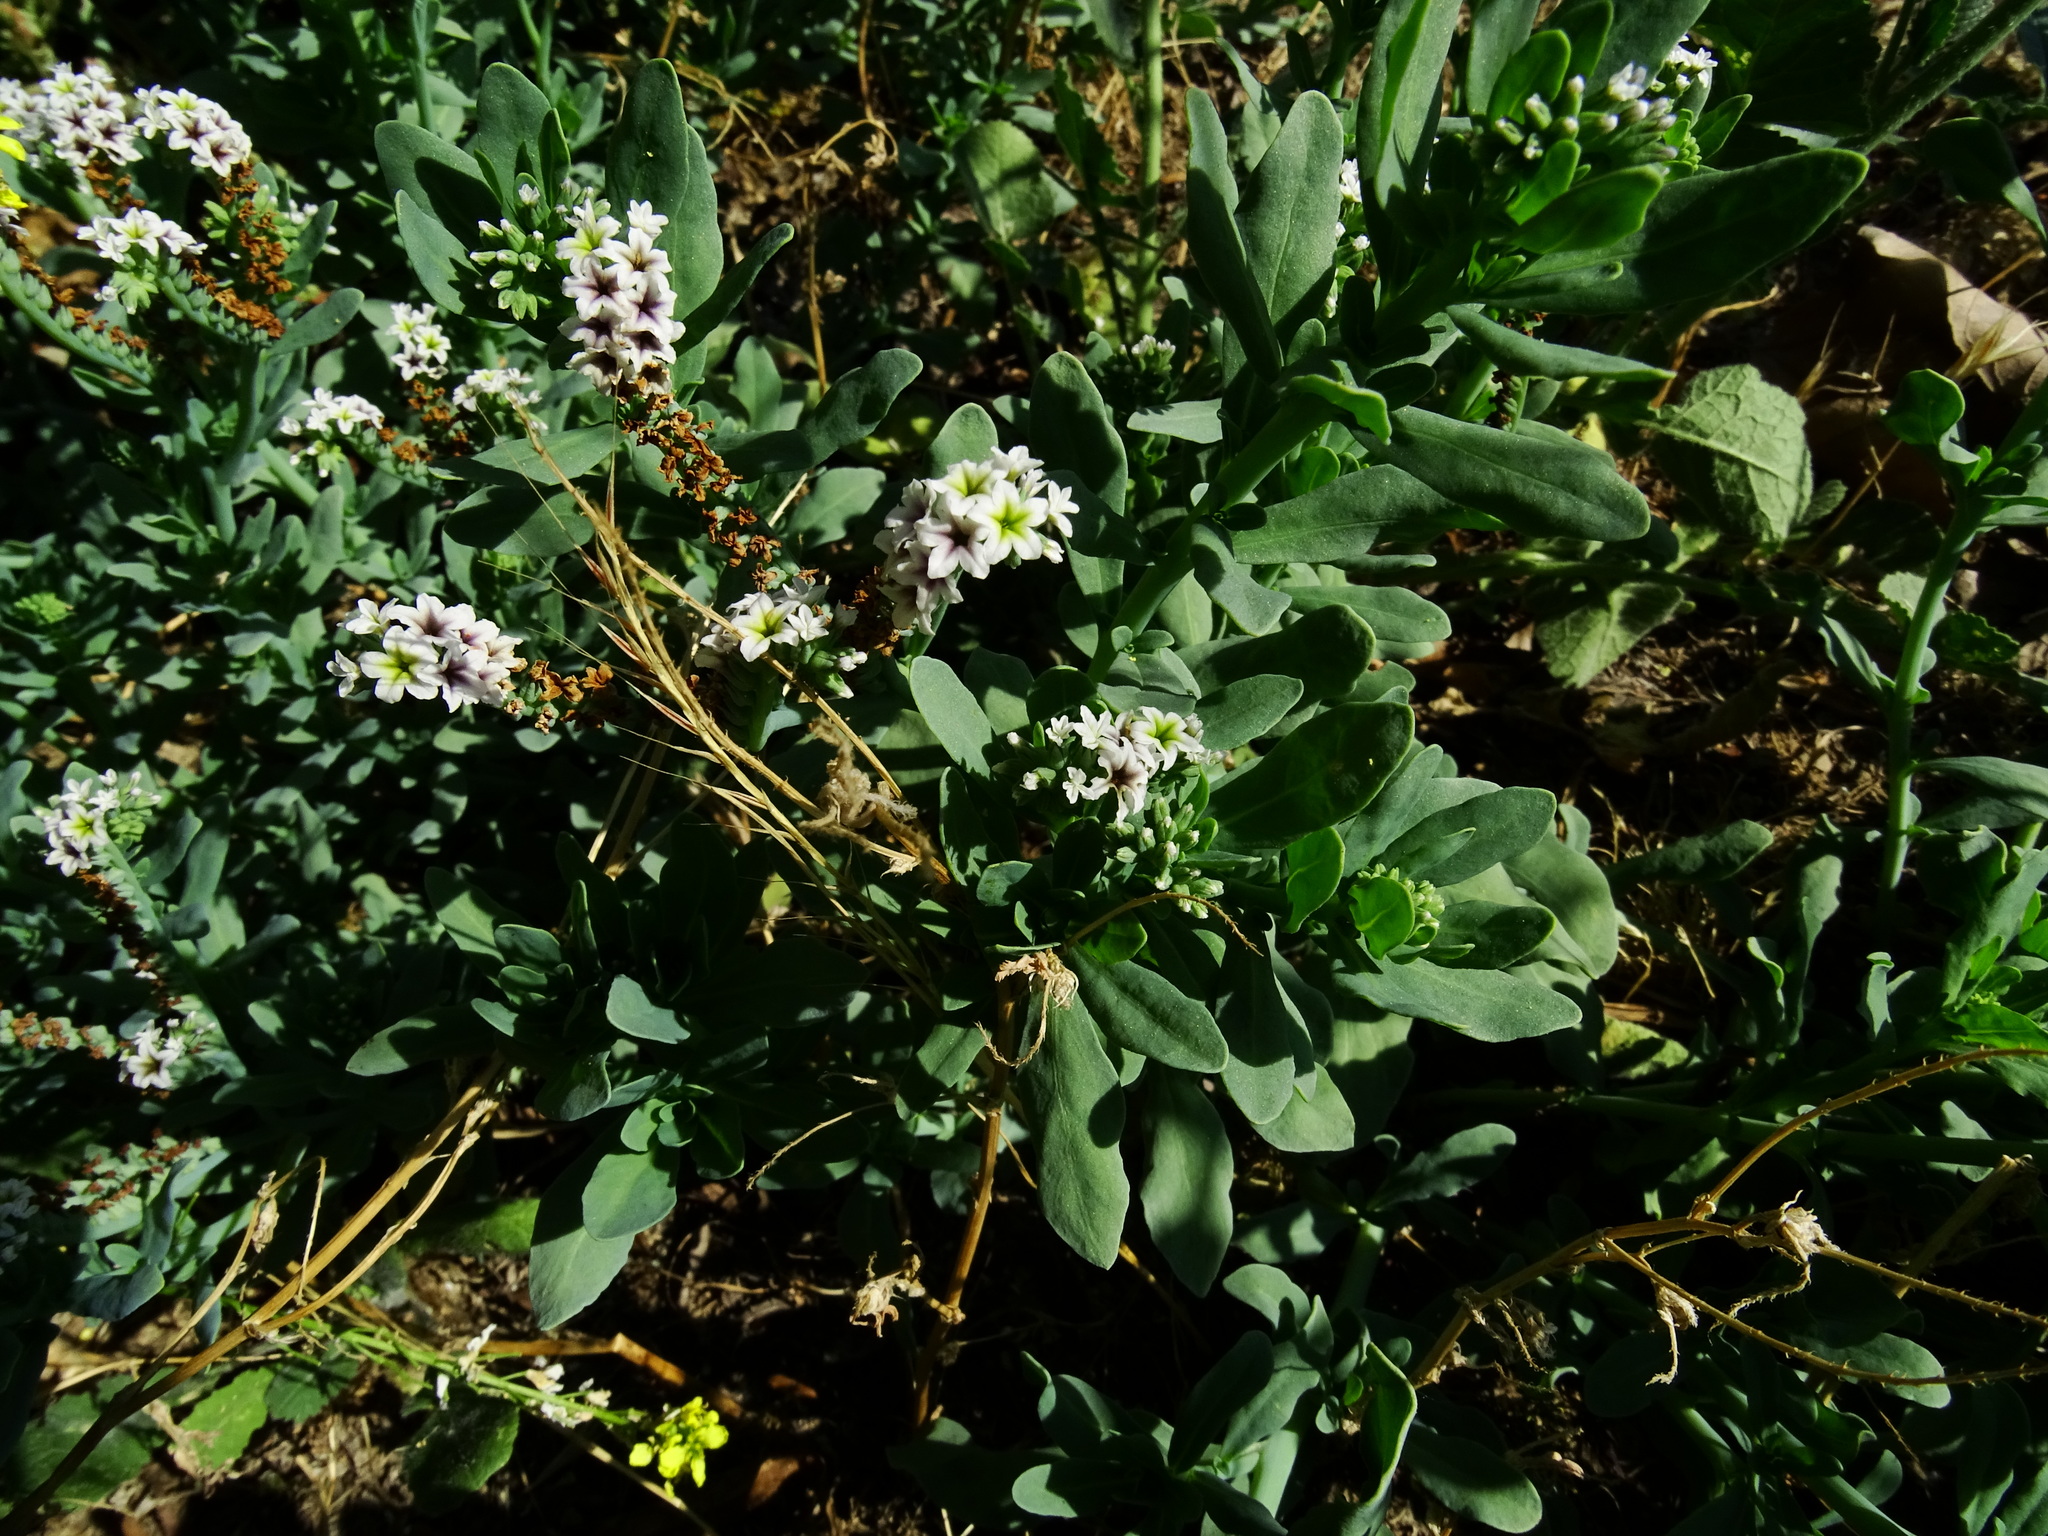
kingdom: Plantae
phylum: Tracheophyta
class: Magnoliopsida
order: Boraginales
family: Heliotropiaceae
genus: Heliotropium
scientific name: Heliotropium curassavicum
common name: Seaside heliotrope
